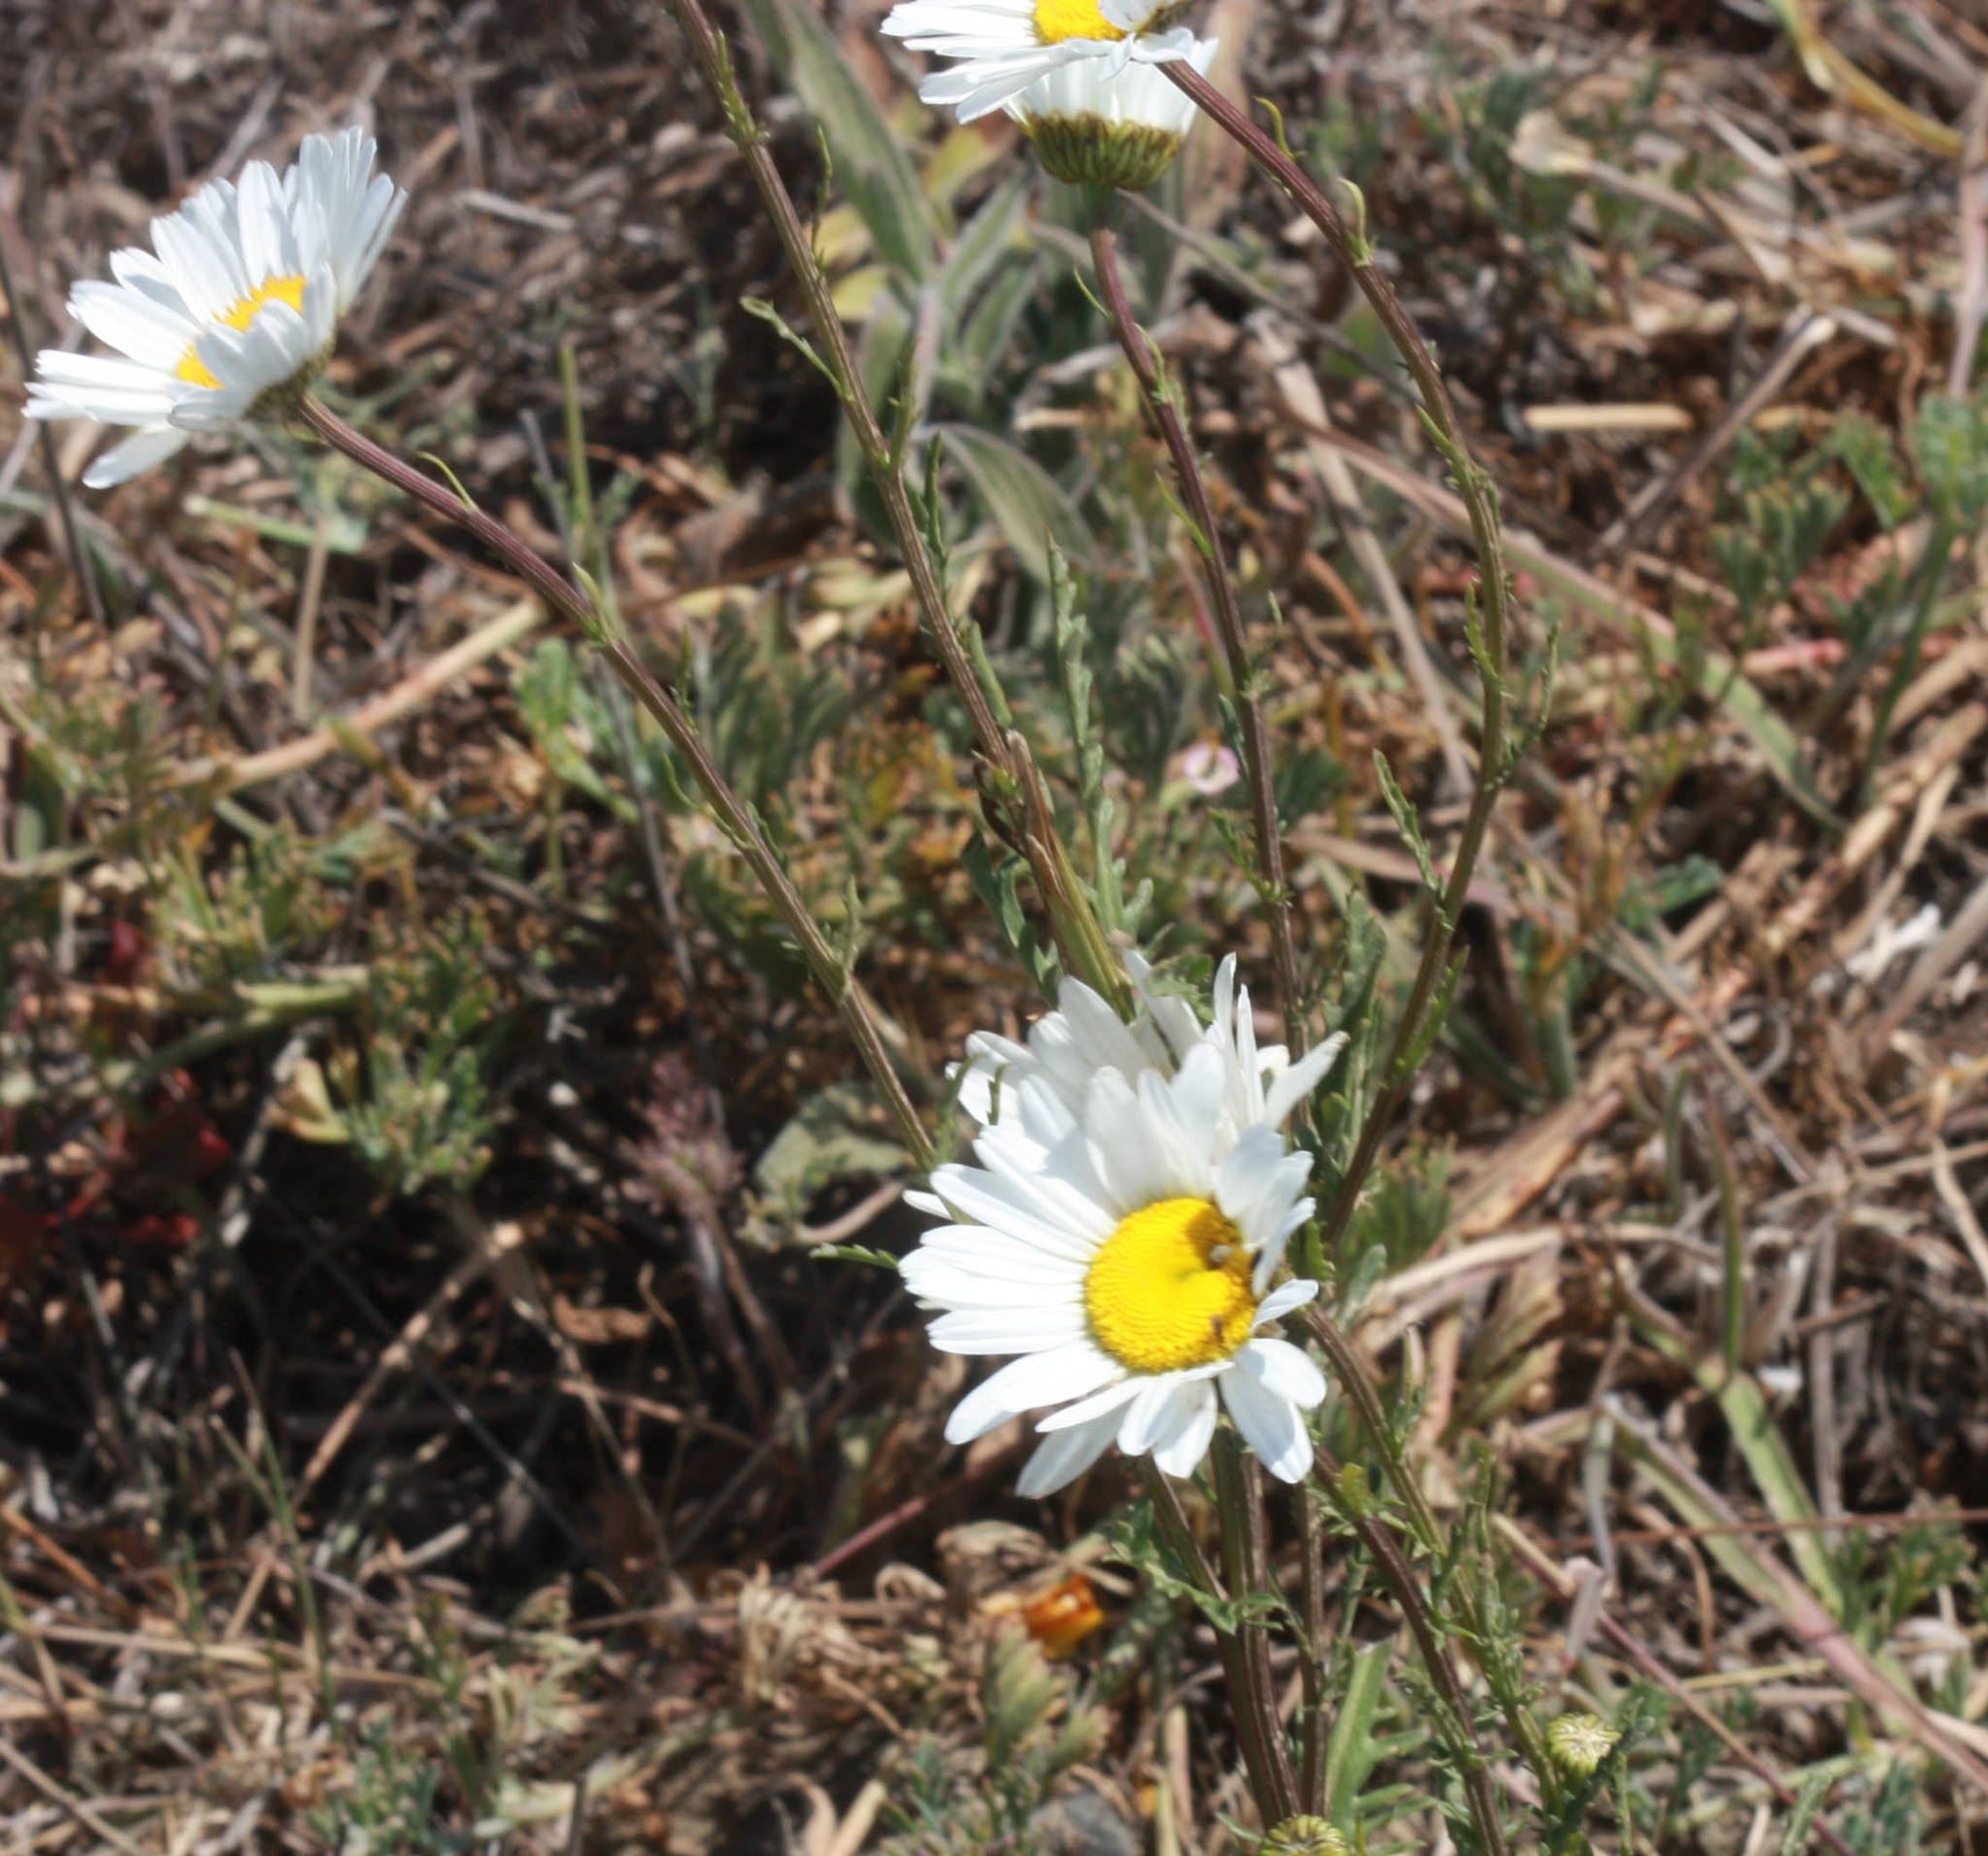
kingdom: Plantae
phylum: Tracheophyta
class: Magnoliopsida
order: Asterales
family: Asteraceae
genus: Leucanthemum
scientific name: Leucanthemum vulgare
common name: Oxeye daisy
